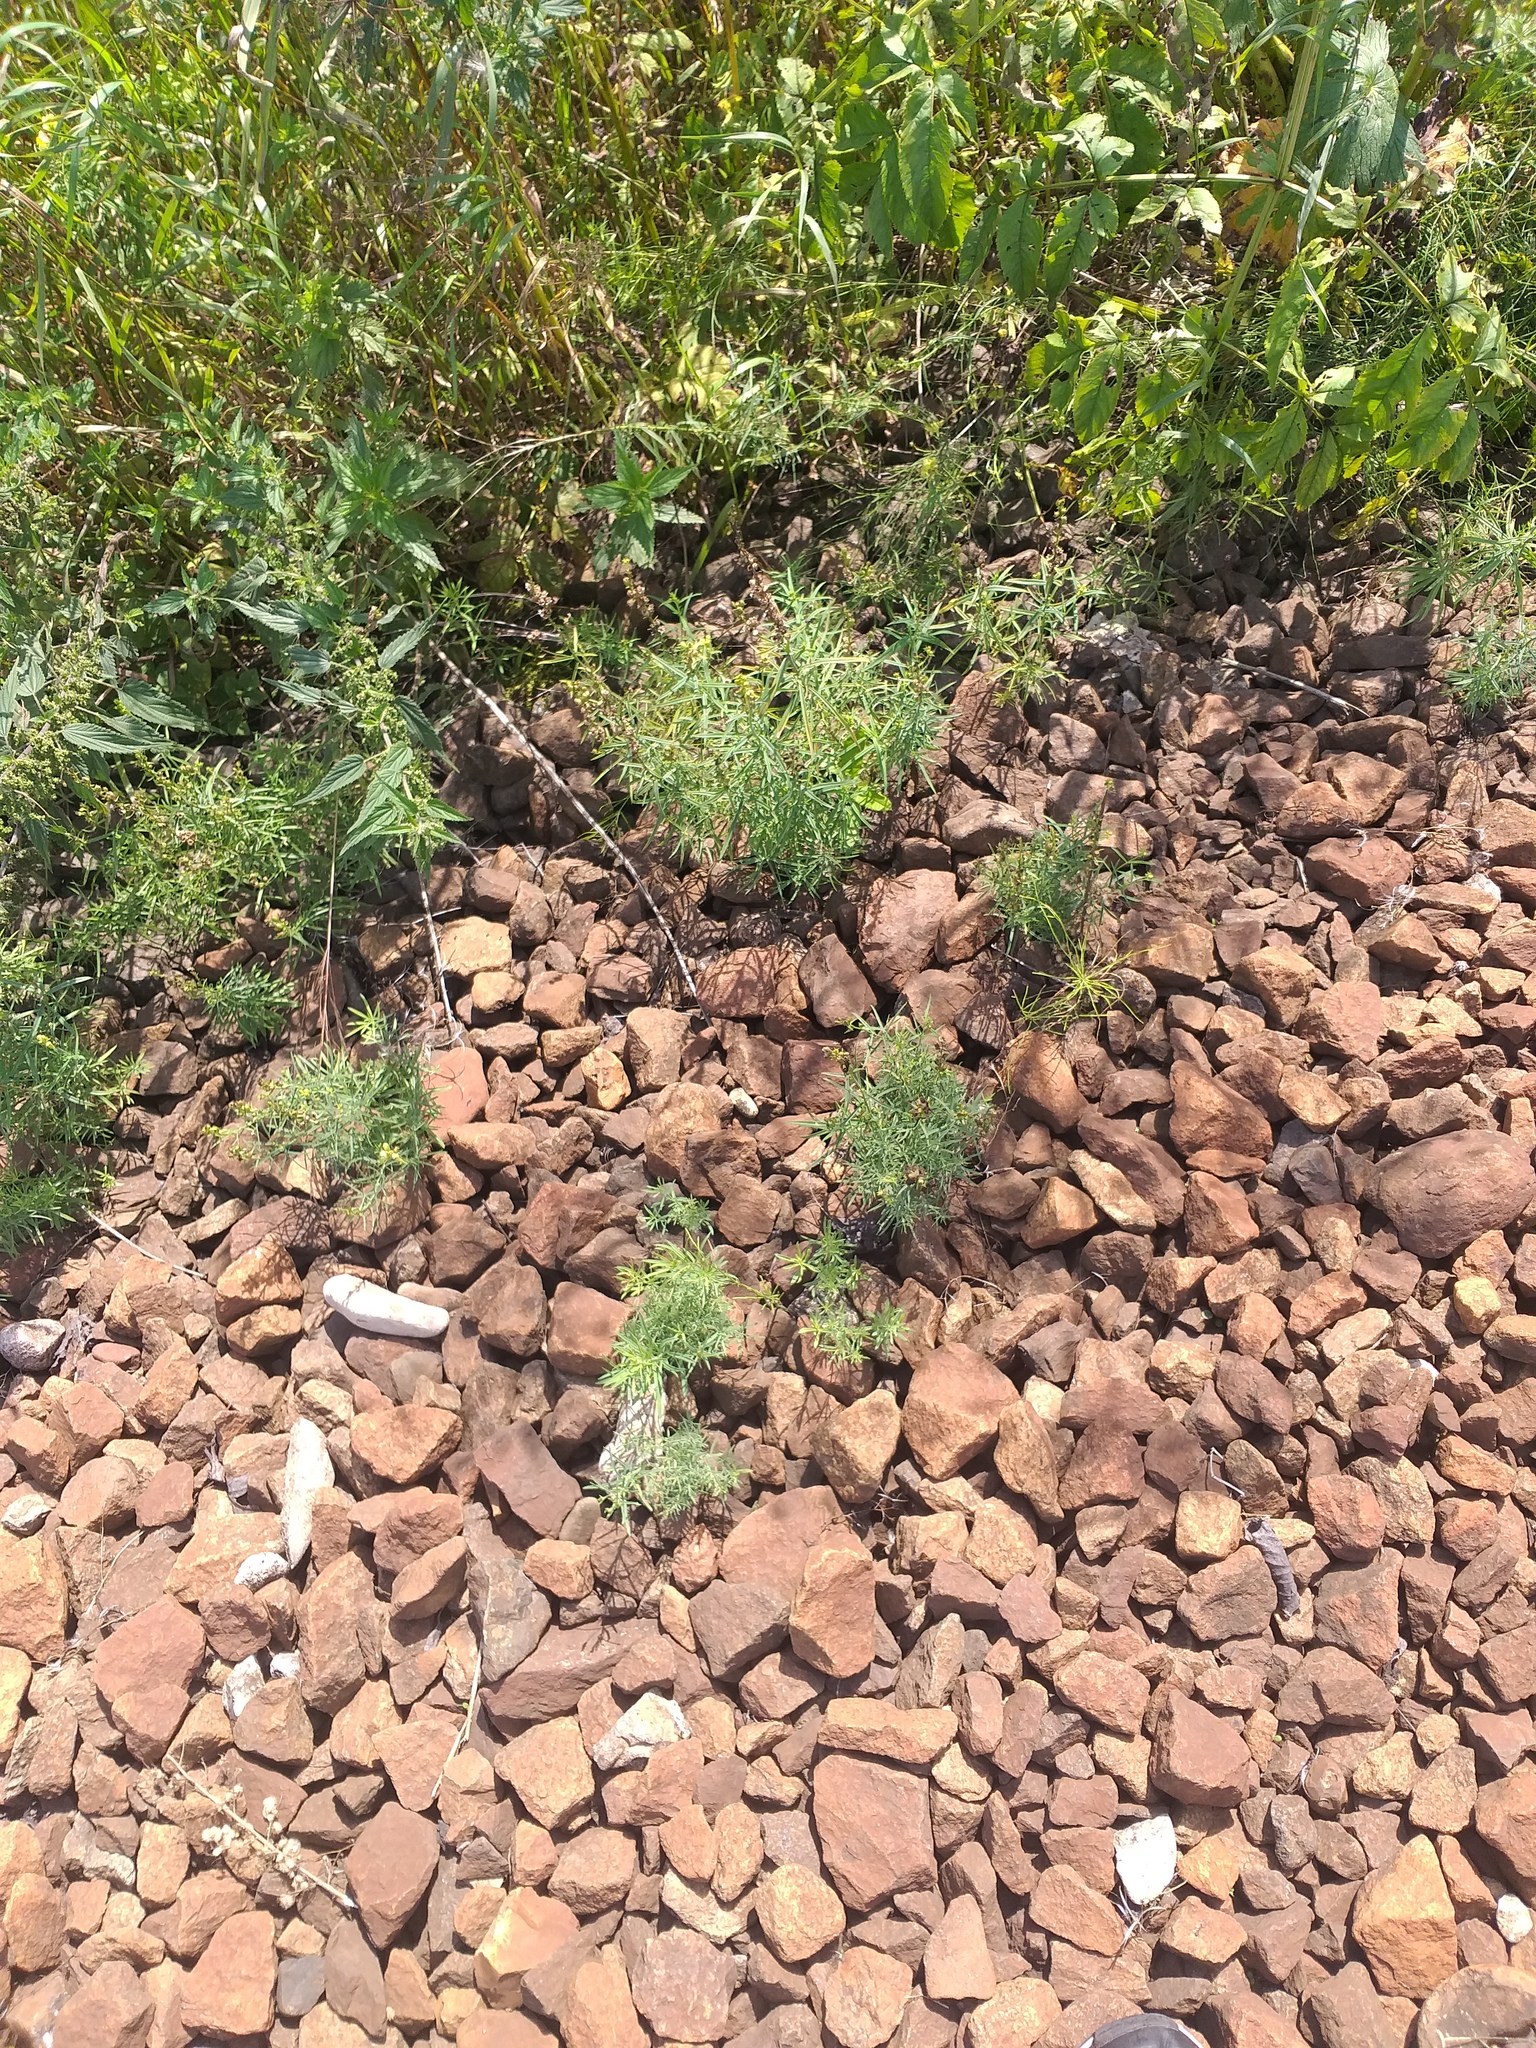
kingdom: Plantae
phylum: Tracheophyta
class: Magnoliopsida
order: Lamiales
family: Plantaginaceae
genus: Linaria
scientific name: Linaria vulgaris
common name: Butter and eggs
